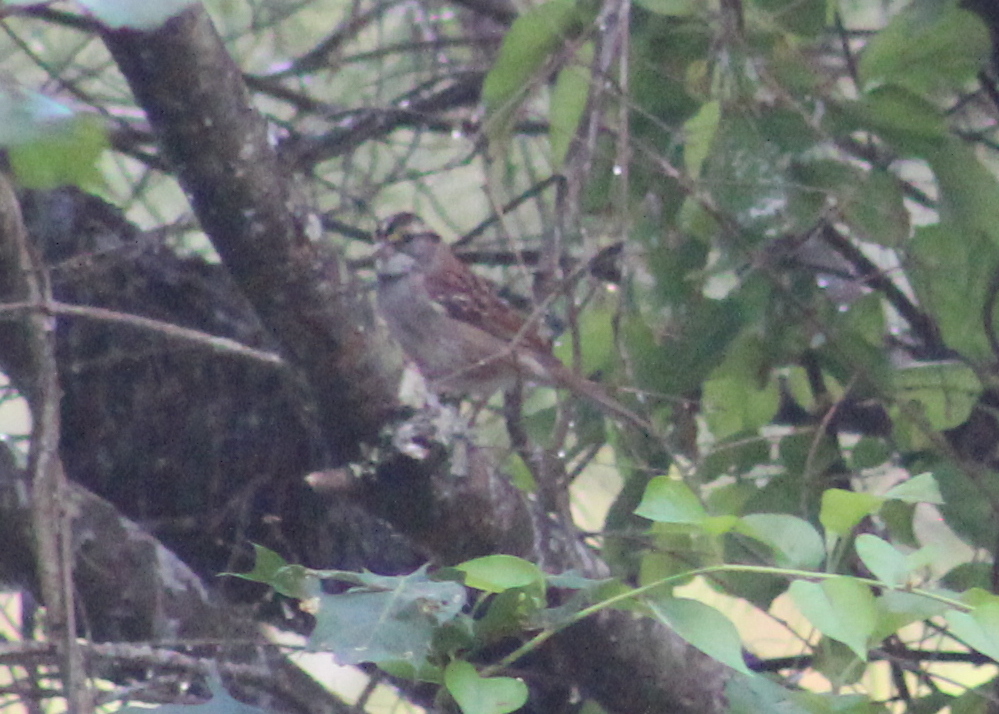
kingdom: Animalia
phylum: Chordata
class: Aves
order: Passeriformes
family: Passerellidae
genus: Zonotrichia
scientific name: Zonotrichia albicollis
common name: White-throated sparrow
